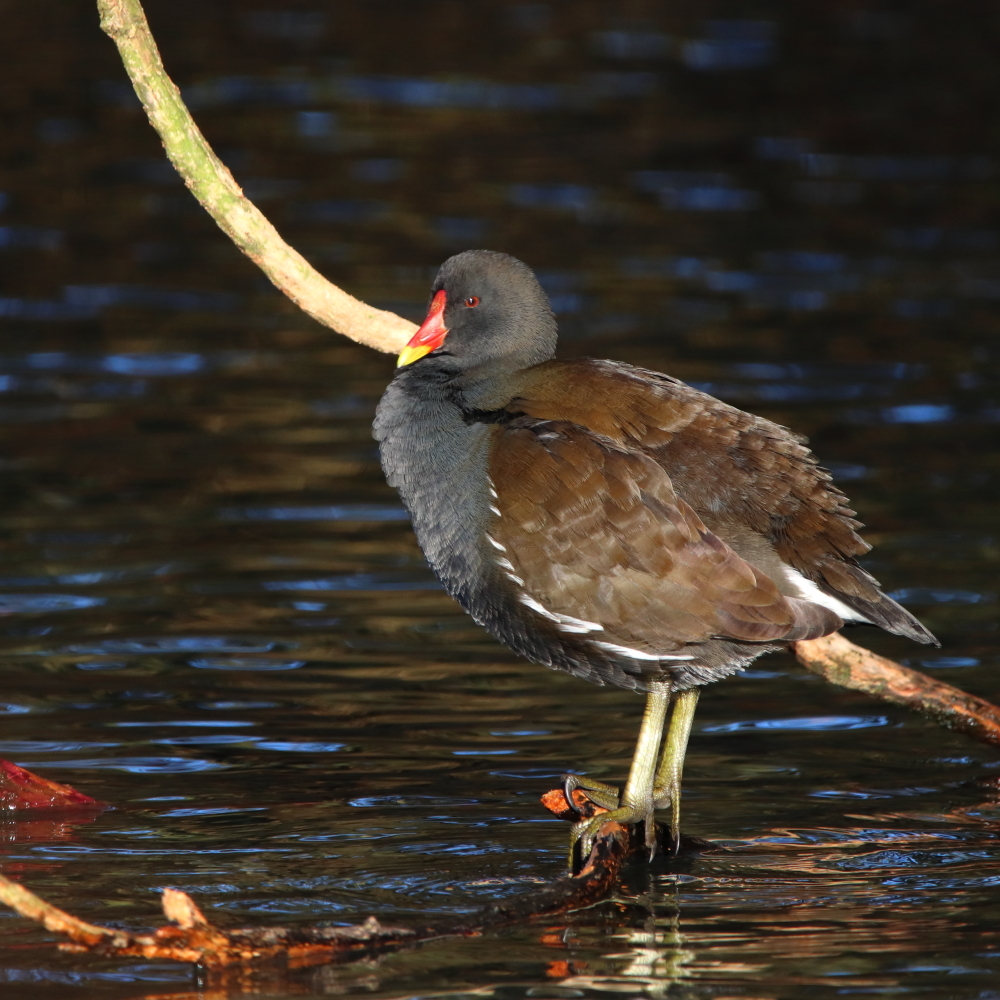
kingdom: Animalia
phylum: Chordata
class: Aves
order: Gruiformes
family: Rallidae
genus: Gallinula
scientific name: Gallinula chloropus
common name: Common moorhen
